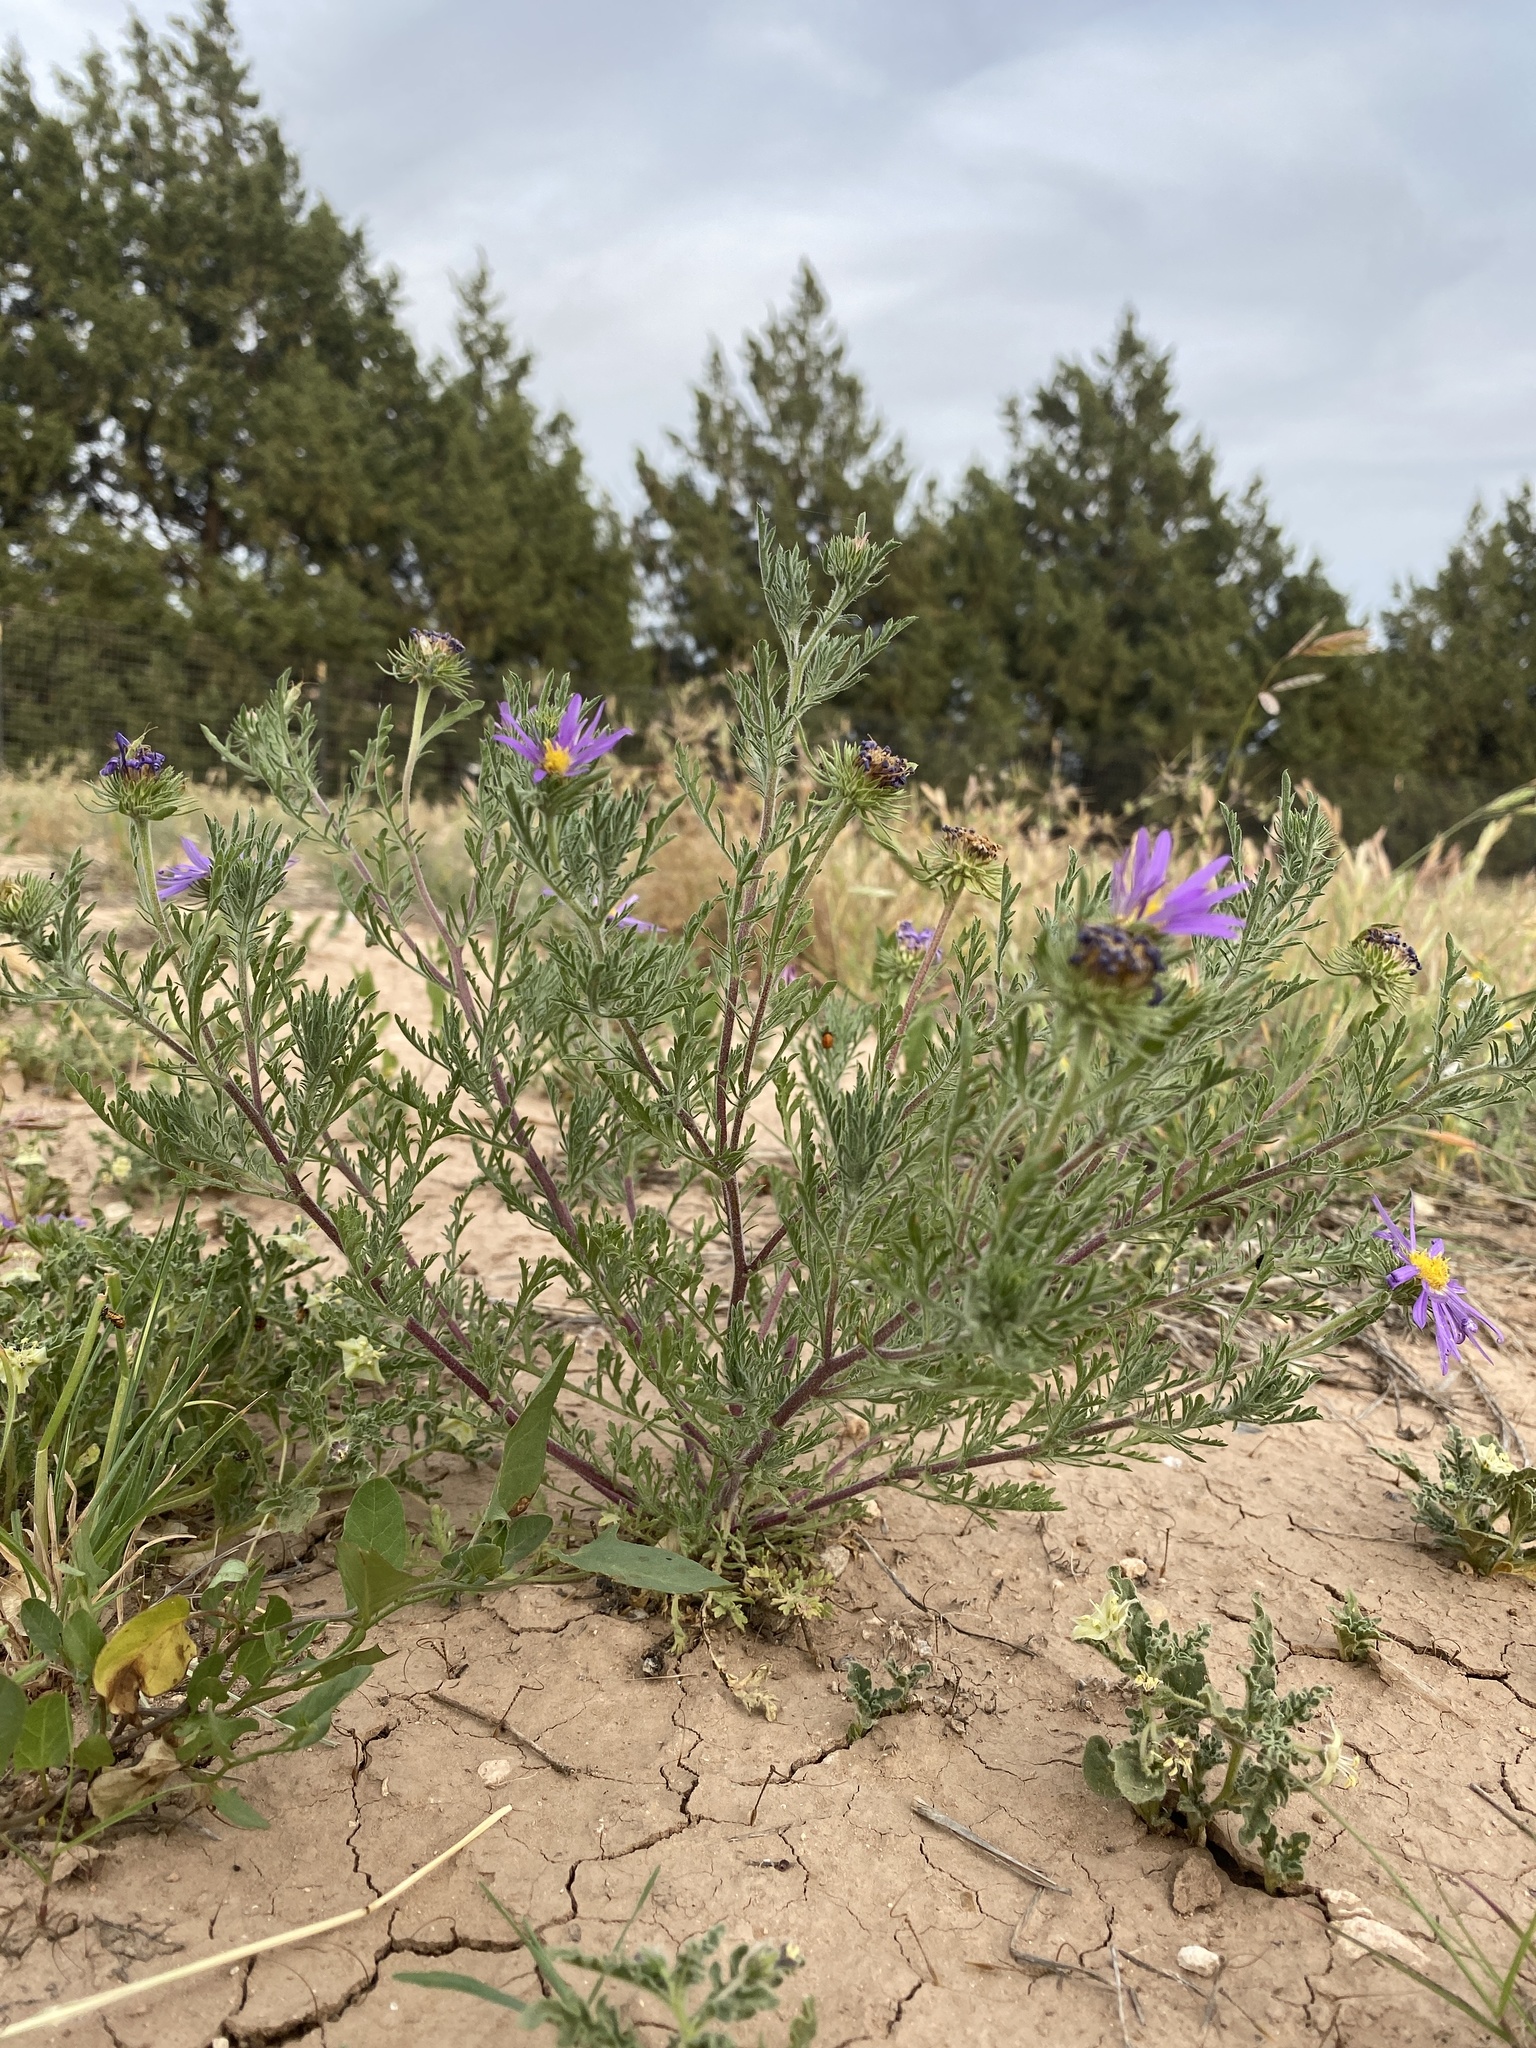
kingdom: Plantae
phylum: Tracheophyta
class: Magnoliopsida
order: Asterales
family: Asteraceae
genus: Machaeranthera
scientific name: Machaeranthera tanacetifolia
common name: Tansy-aster
